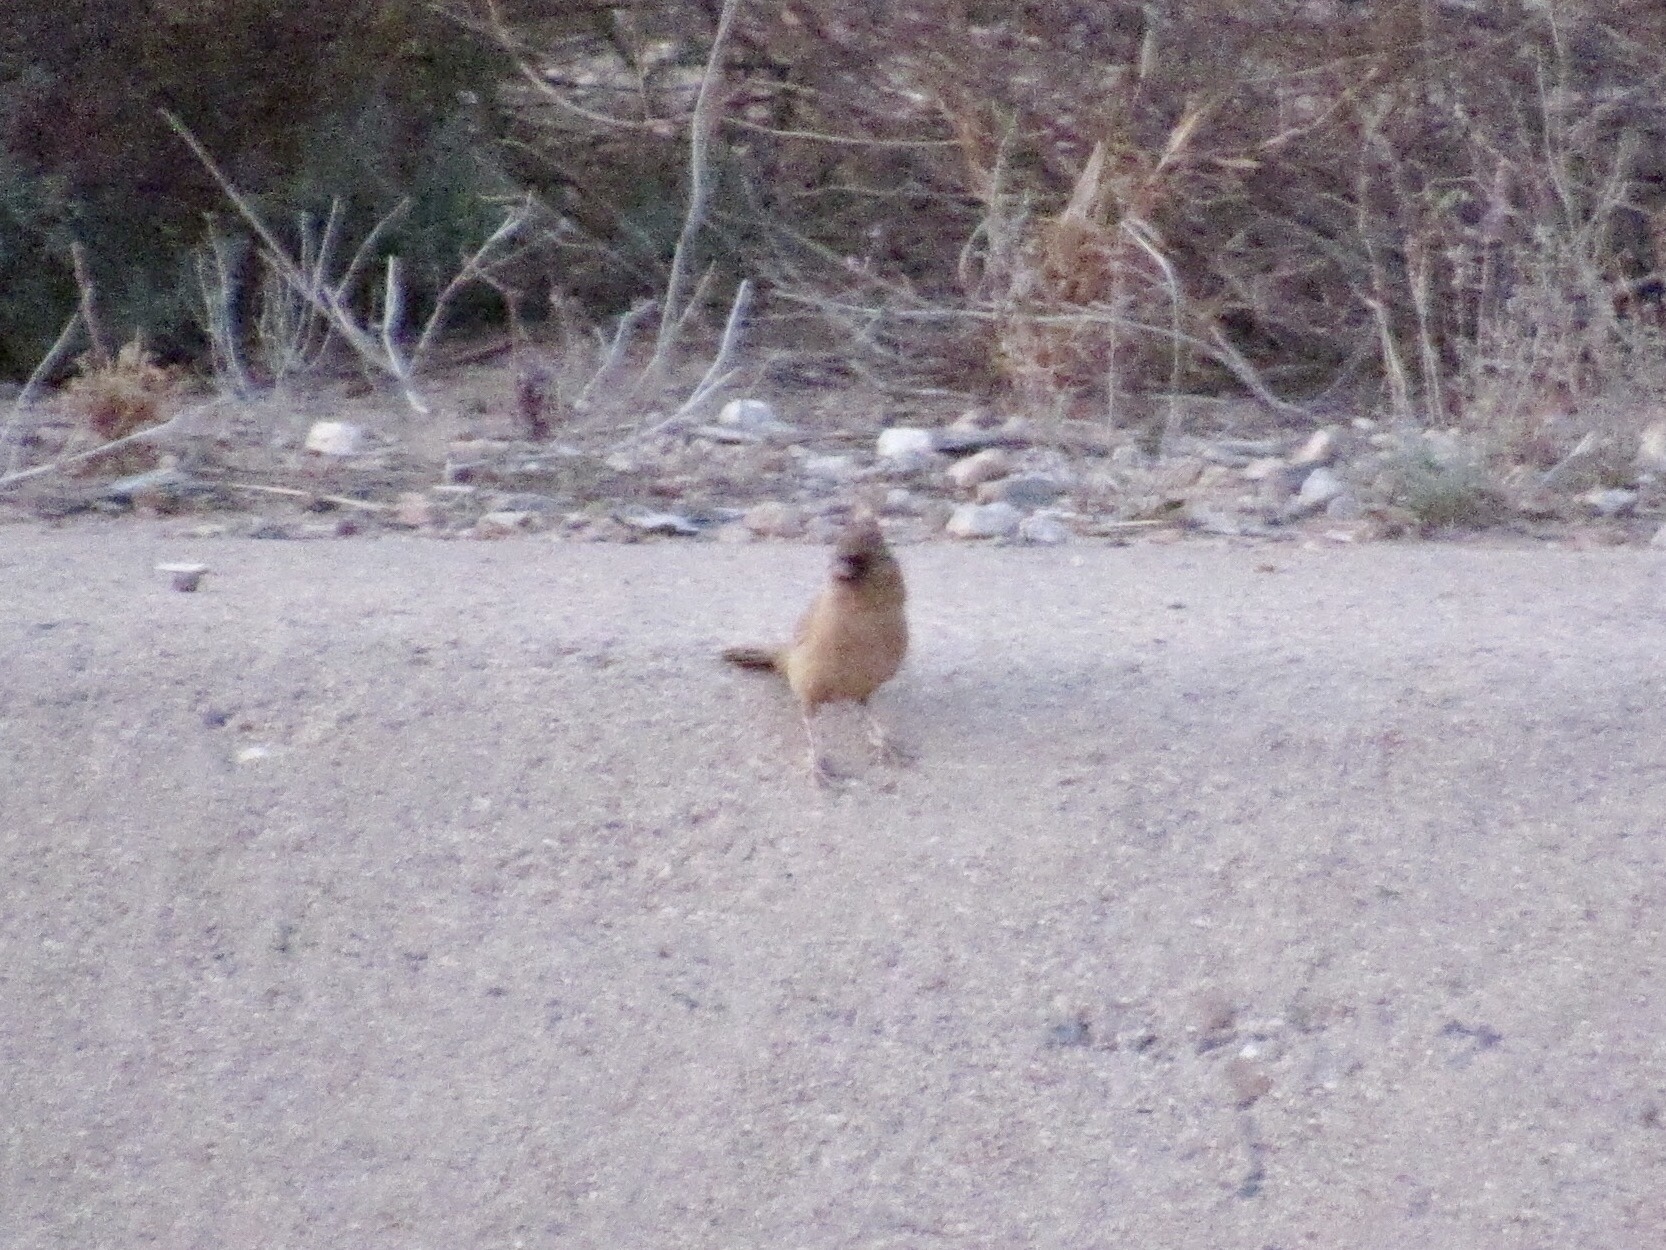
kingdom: Animalia
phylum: Chordata
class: Aves
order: Passeriformes
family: Passerellidae
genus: Melozone
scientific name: Melozone aberti
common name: Abert's towhee
